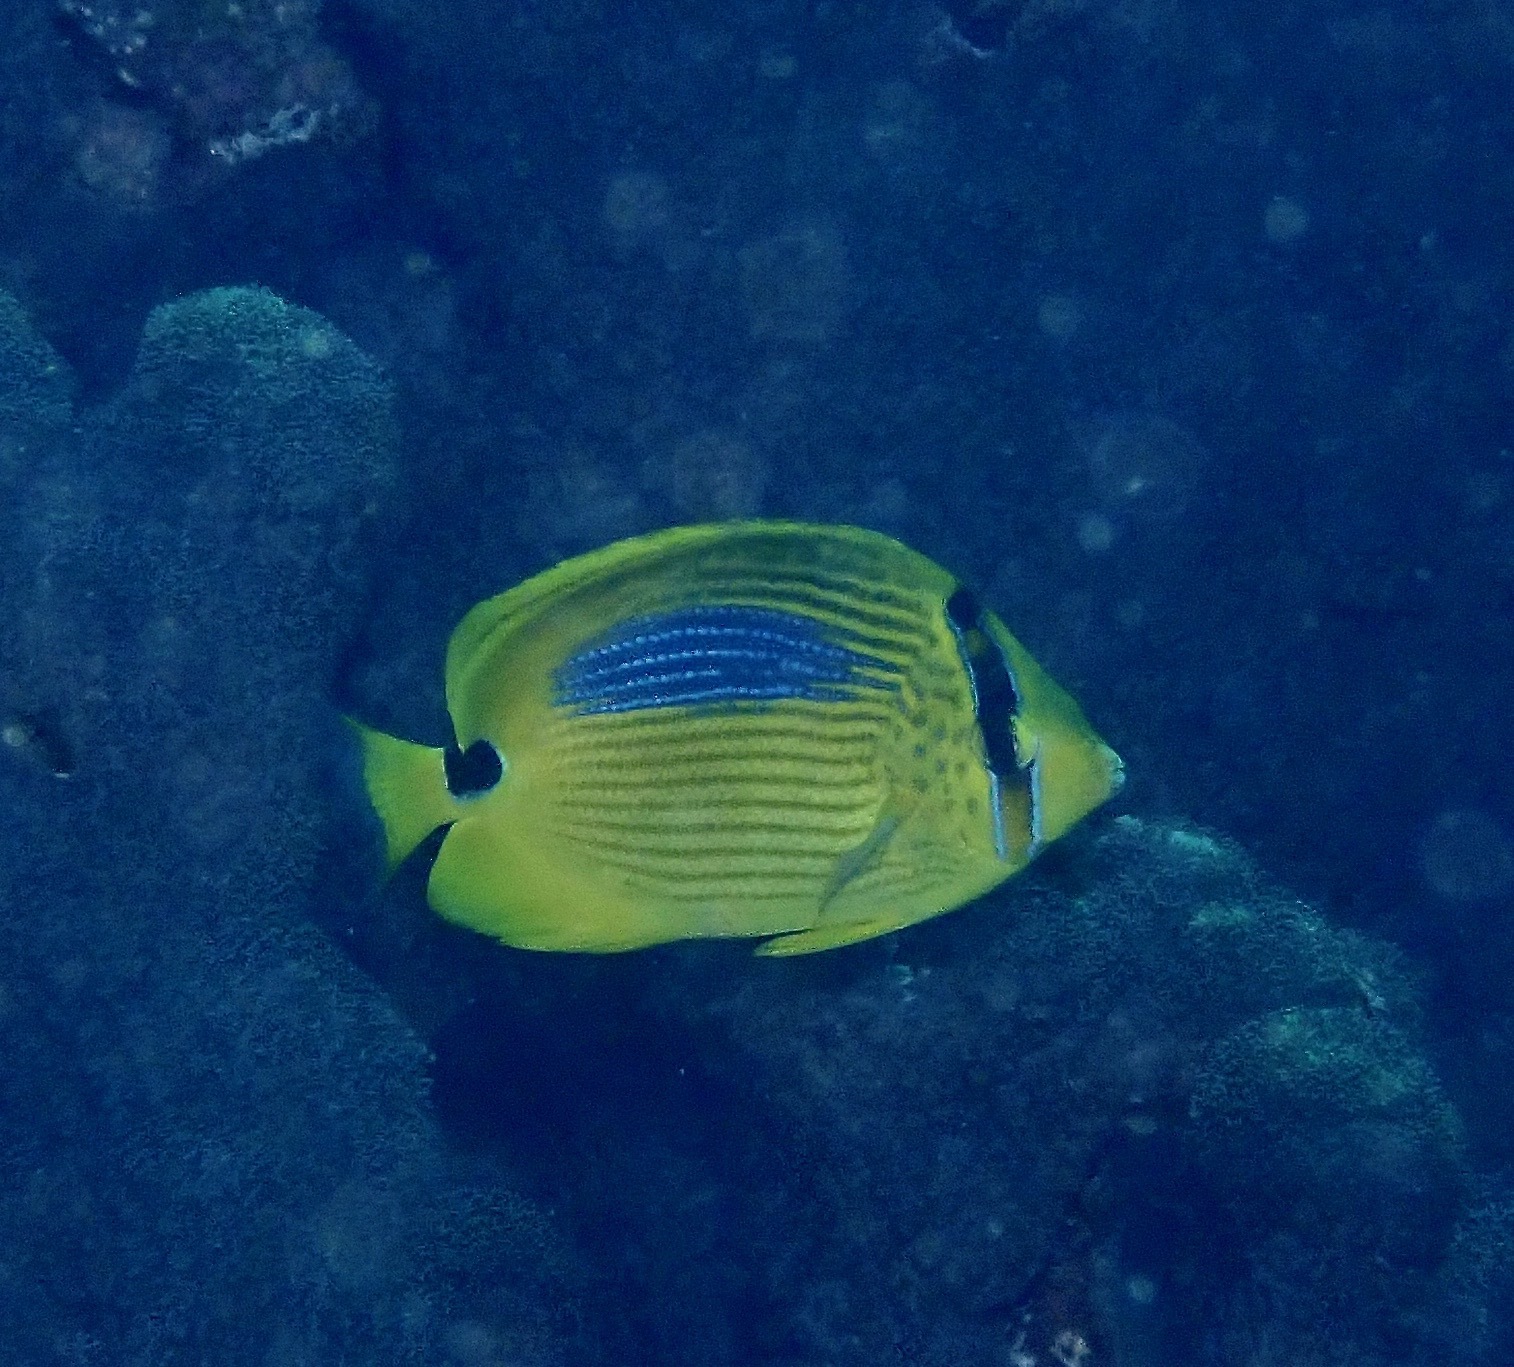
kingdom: Animalia
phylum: Chordata
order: Perciformes
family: Chaetodontidae
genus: Chaetodon
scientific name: Chaetodon plebeius
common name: Bluespot butterflyfish
